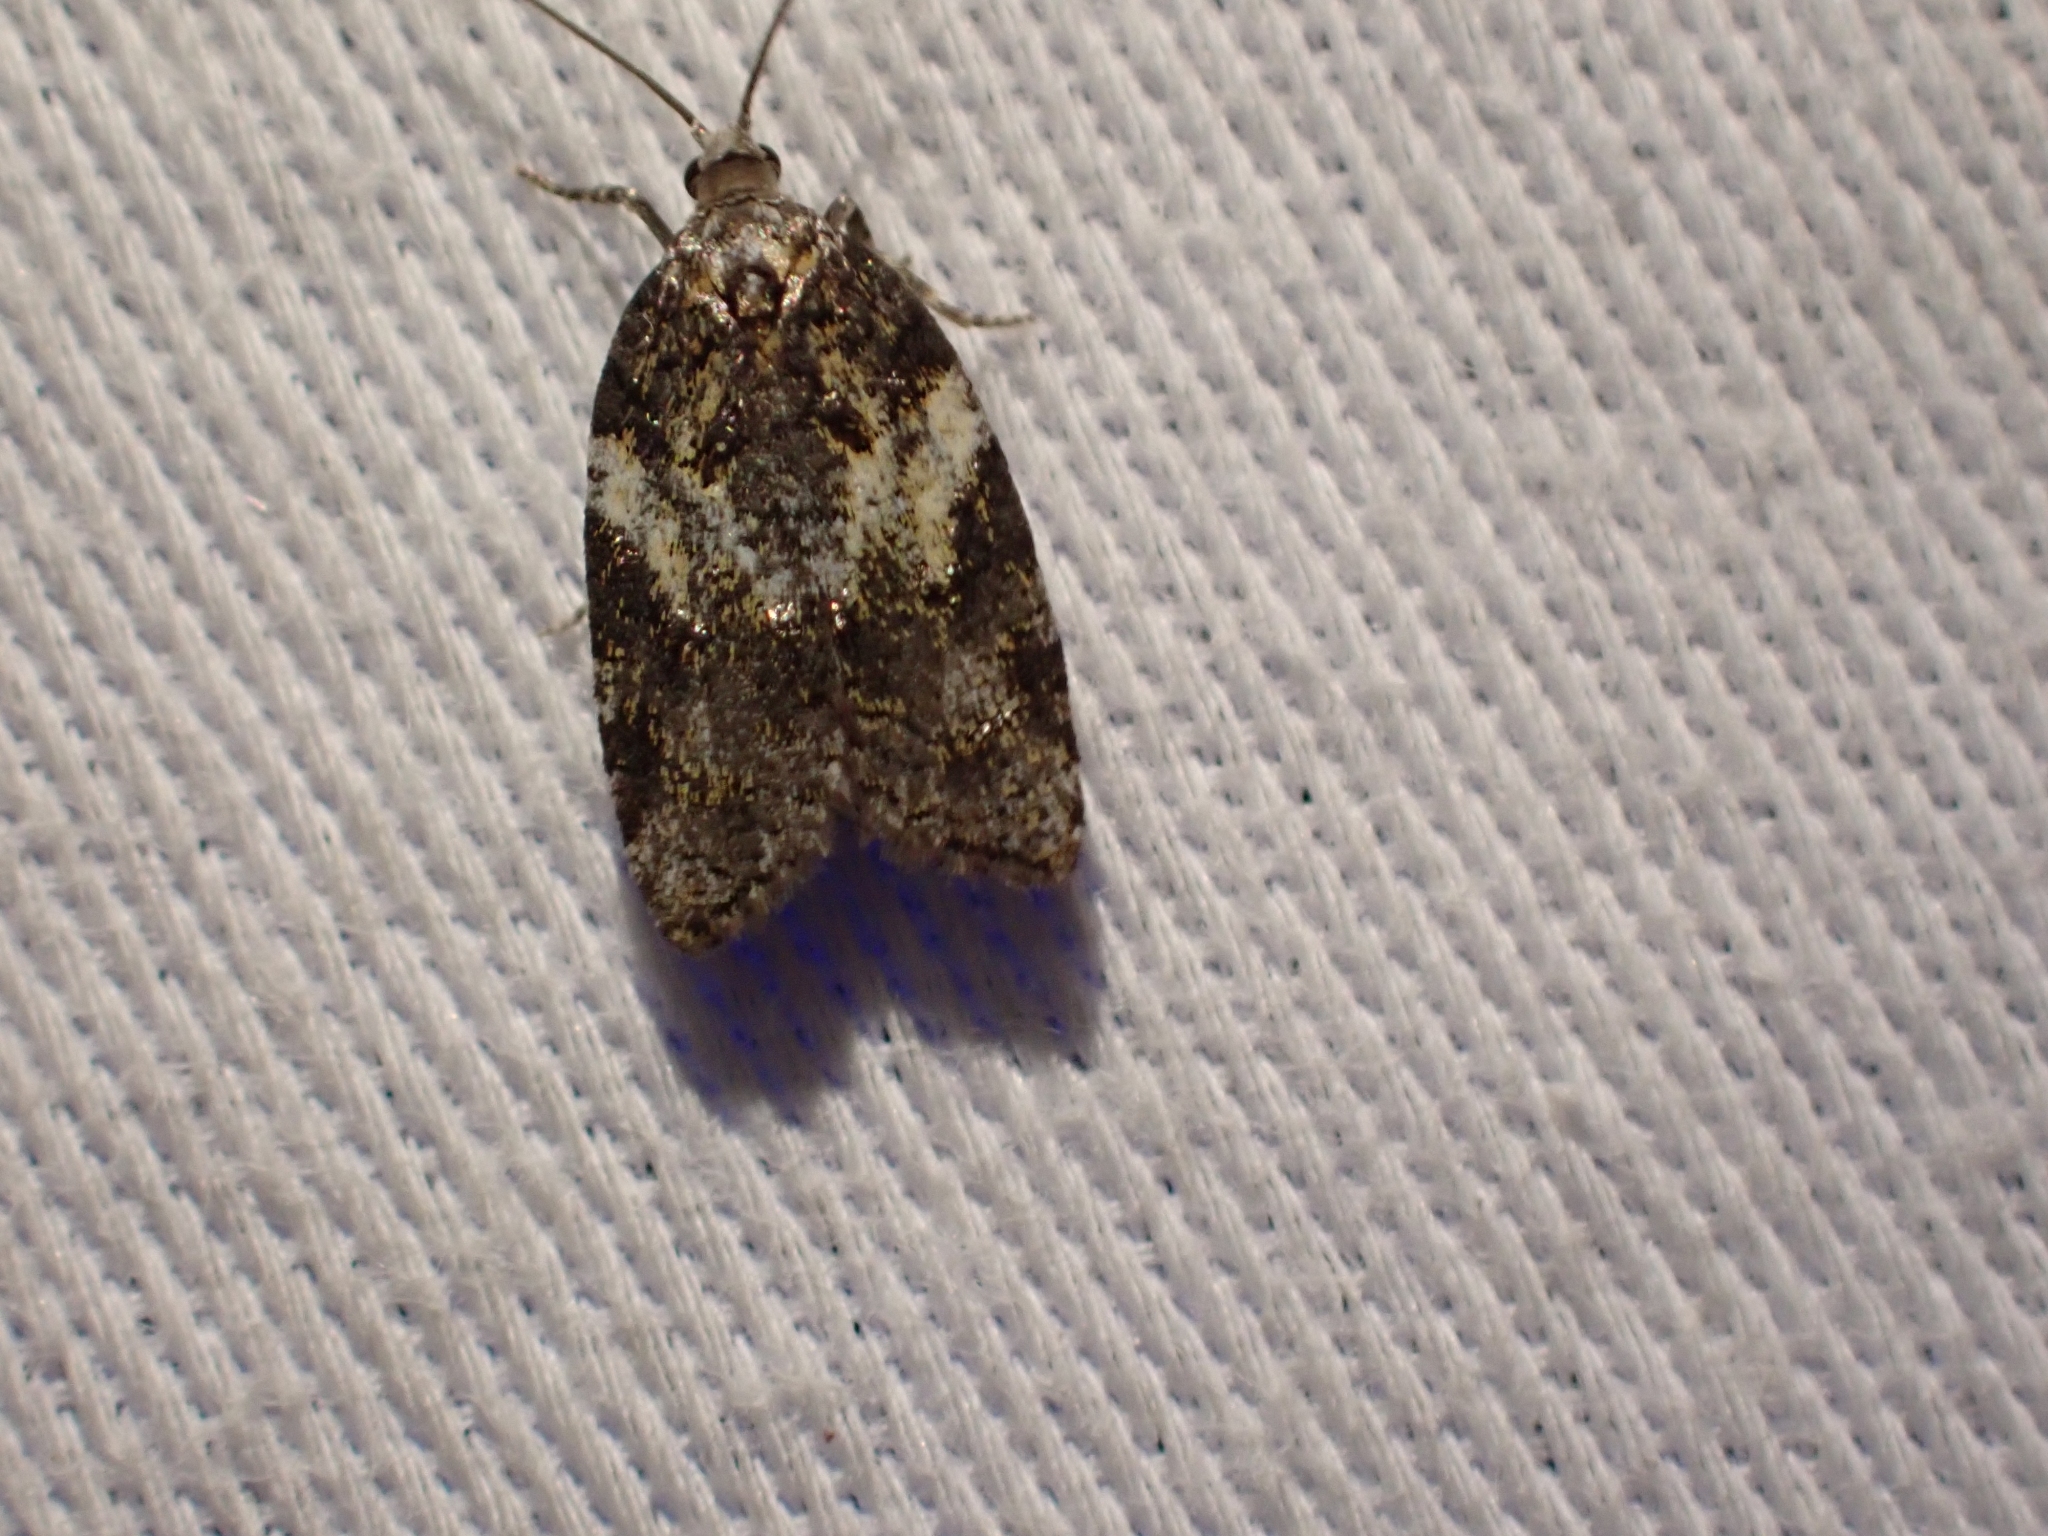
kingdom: Animalia
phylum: Arthropoda
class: Insecta
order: Lepidoptera
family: Tortricidae
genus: Acleris
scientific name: Acleris gloveranus
